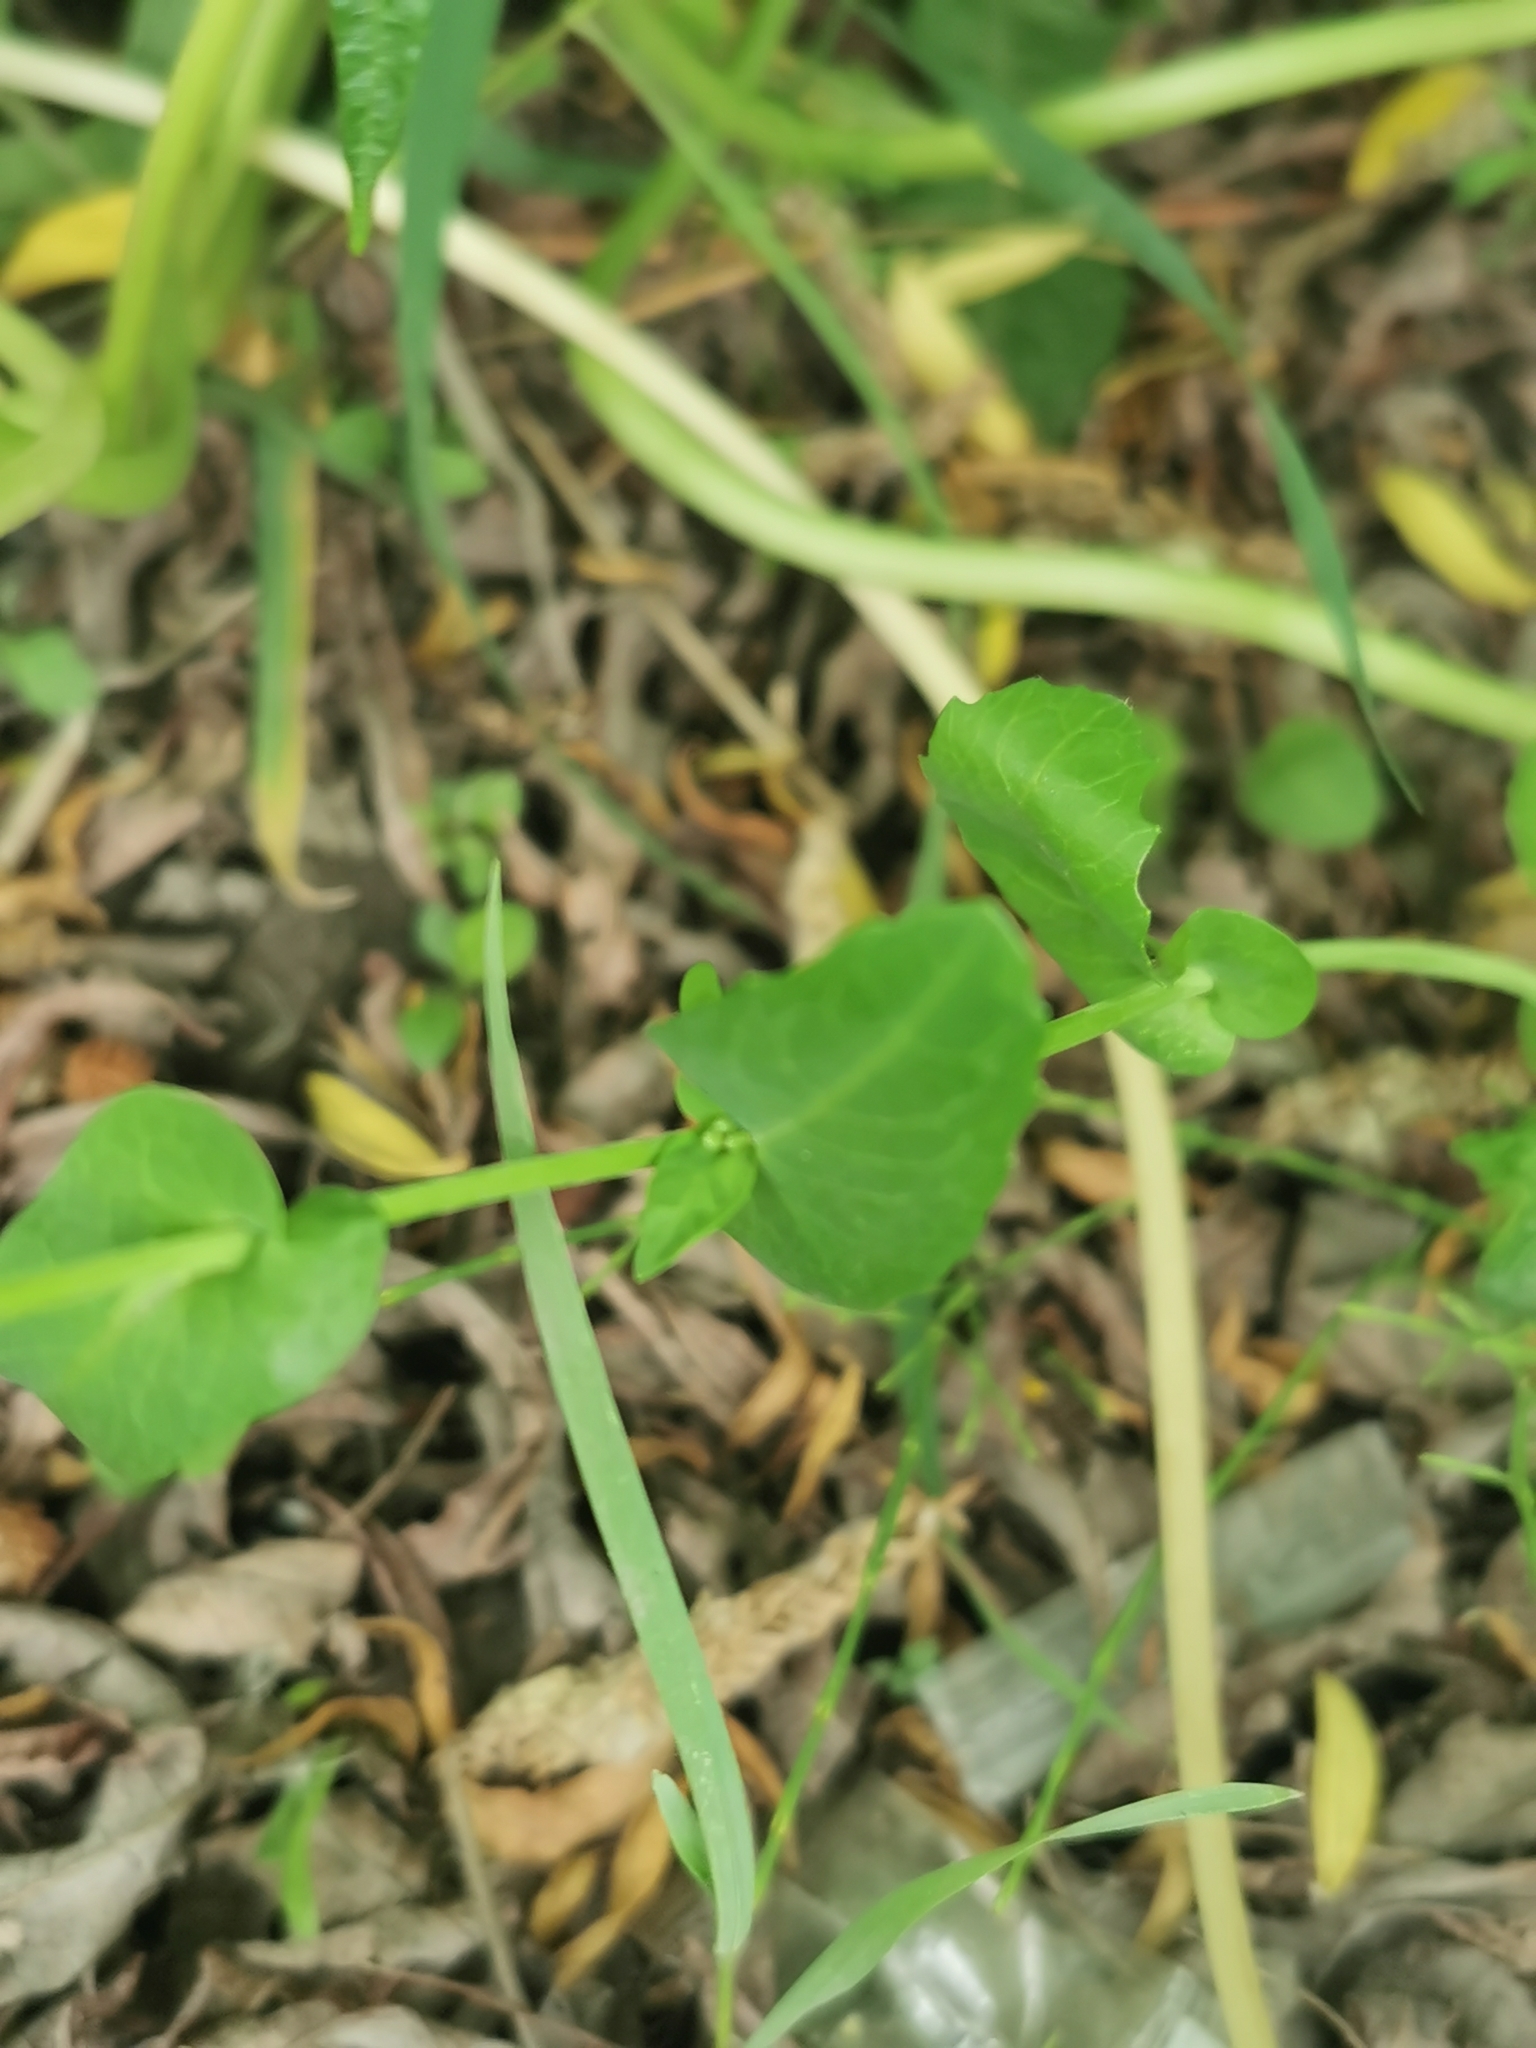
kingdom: Plantae
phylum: Tracheophyta
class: Magnoliopsida
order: Brassicales
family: Brassicaceae
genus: Brassica
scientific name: Brassica rapa
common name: Field mustard
